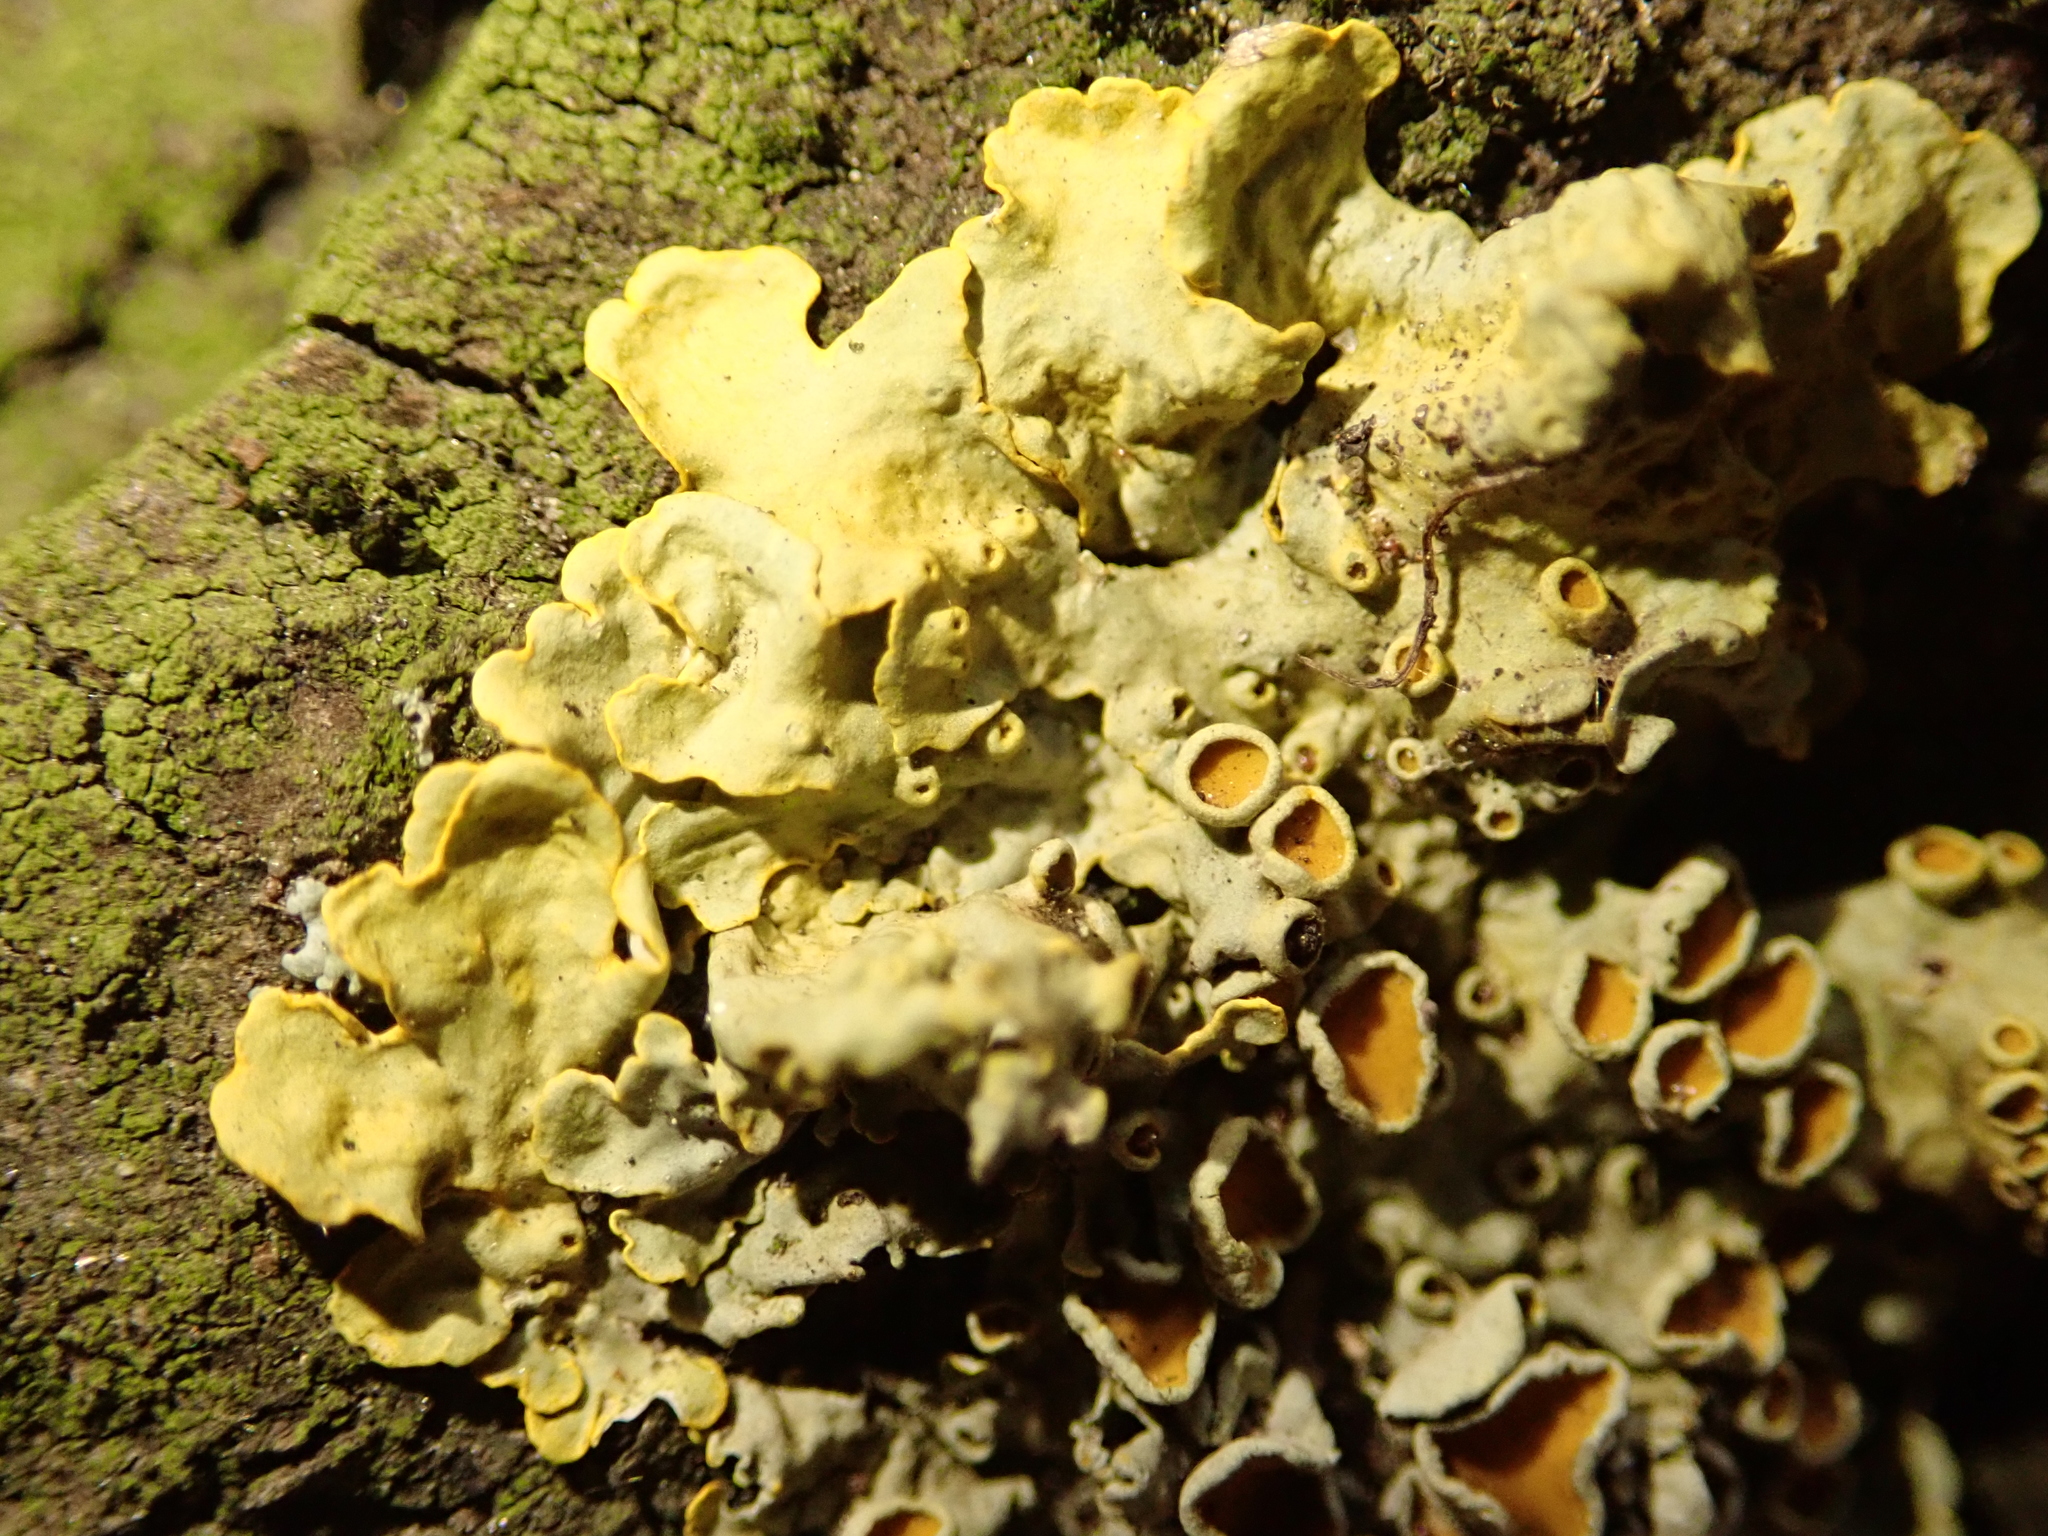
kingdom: Fungi
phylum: Ascomycota
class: Lecanoromycetes
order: Teloschistales
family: Teloschistaceae
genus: Xanthoria
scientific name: Xanthoria parietina
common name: Common orange lichen
